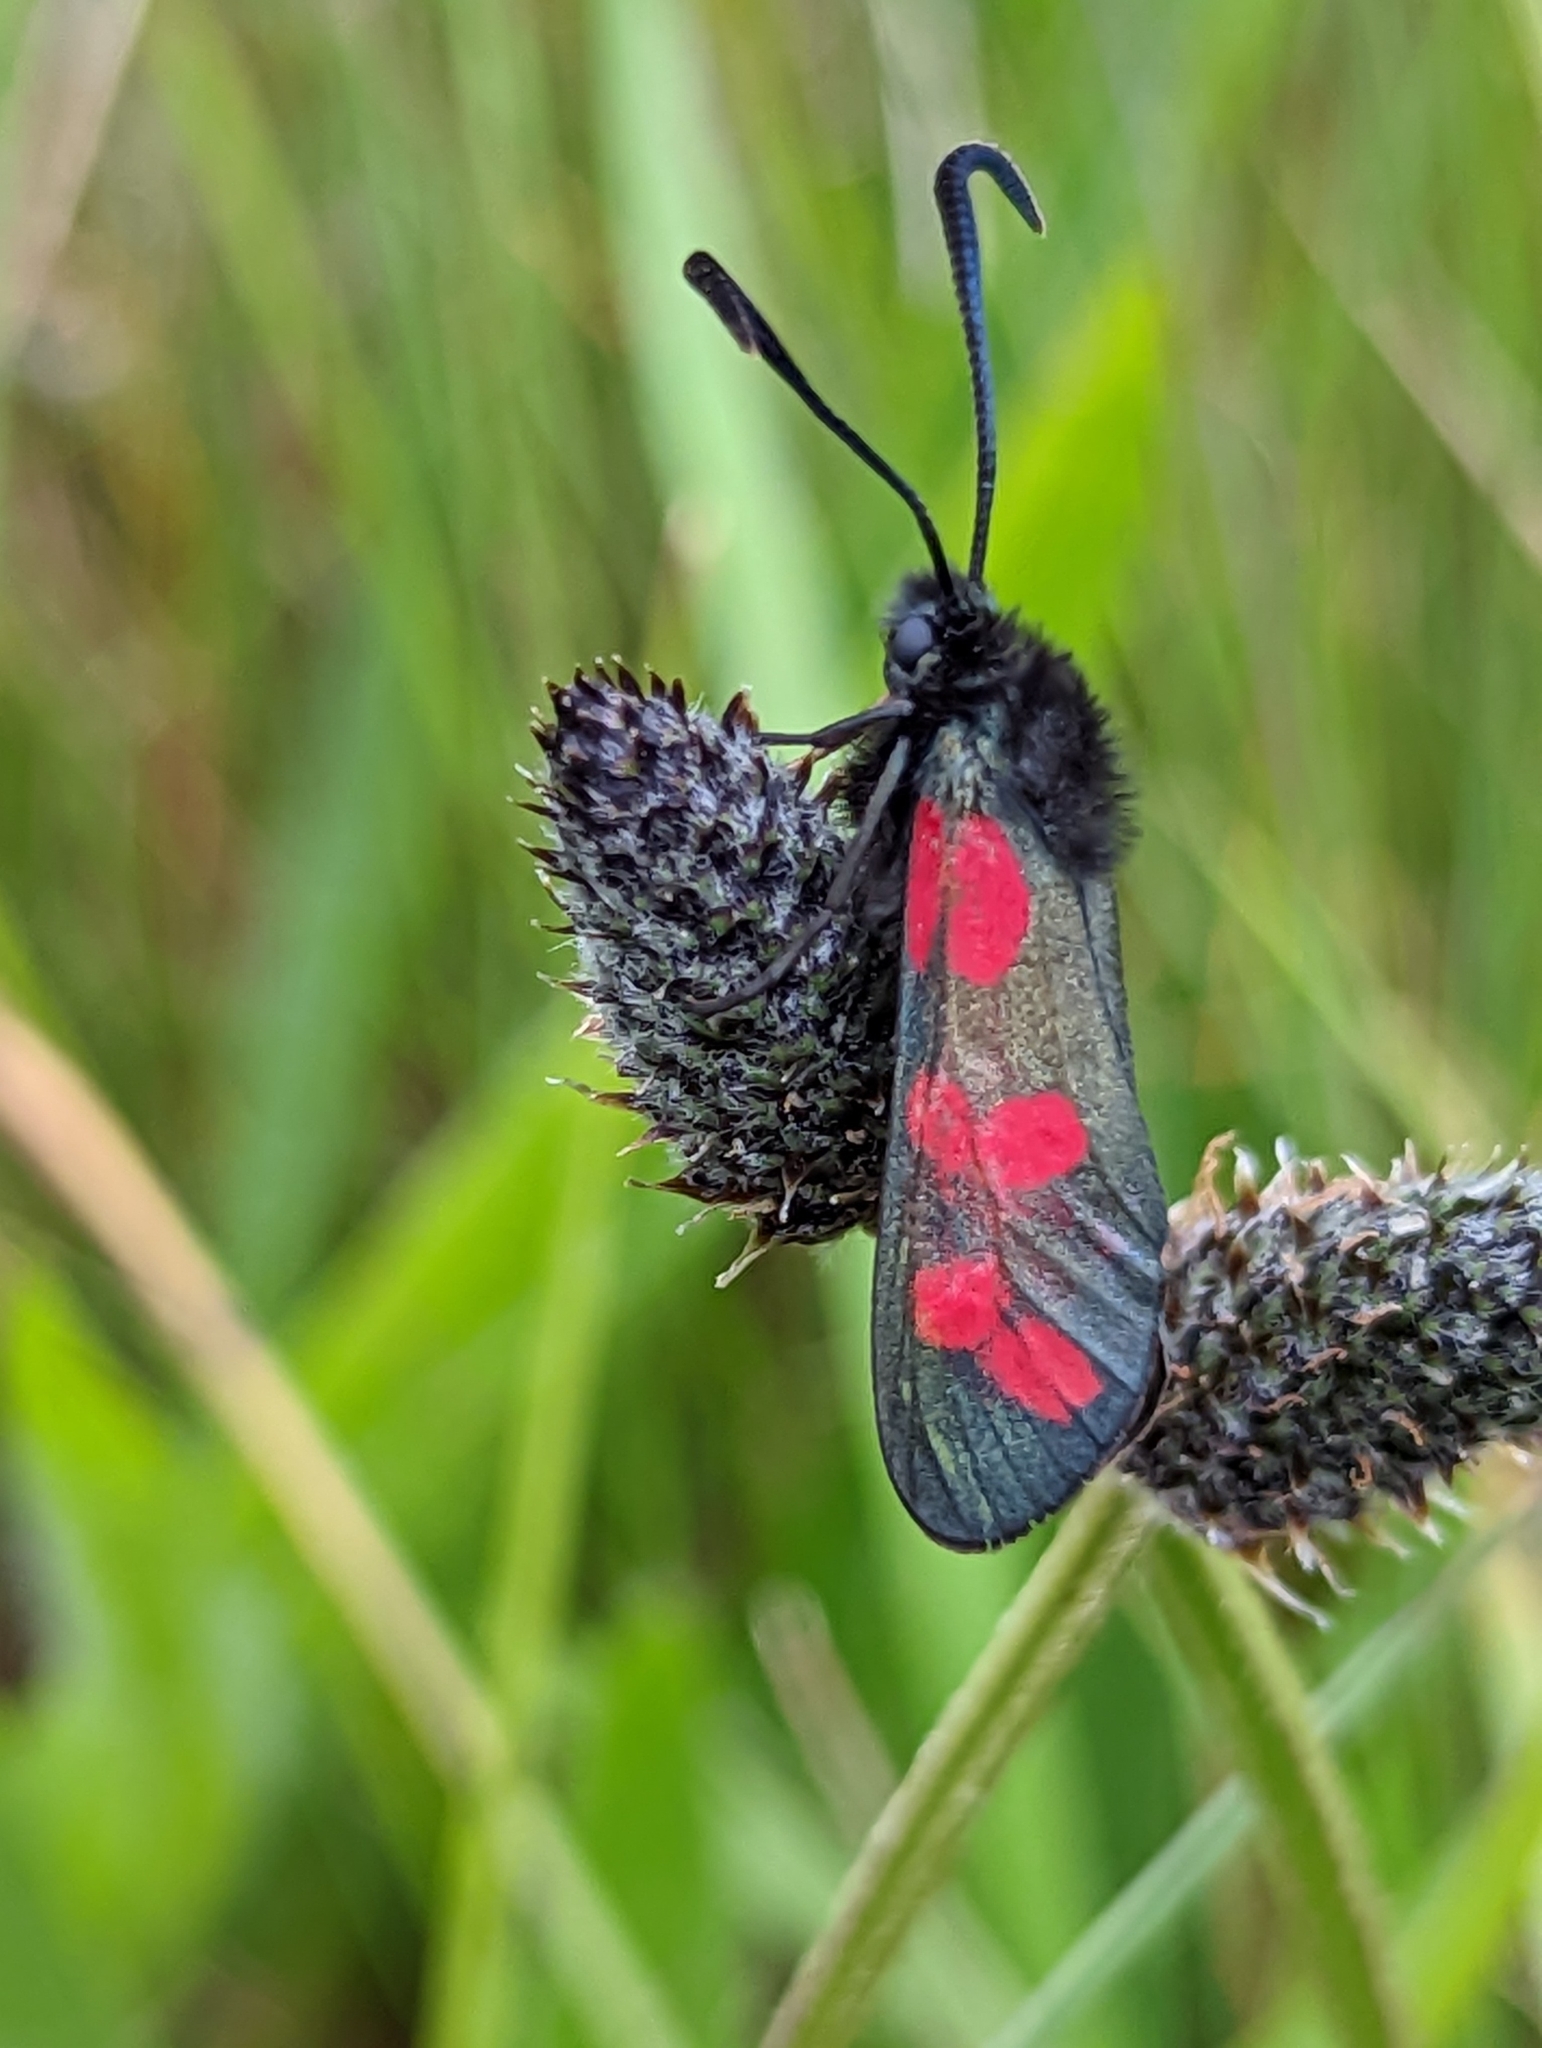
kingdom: Animalia
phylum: Arthropoda
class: Insecta
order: Lepidoptera
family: Zygaenidae
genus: Zygaena
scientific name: Zygaena filipendulae
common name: Six-spot burnet
